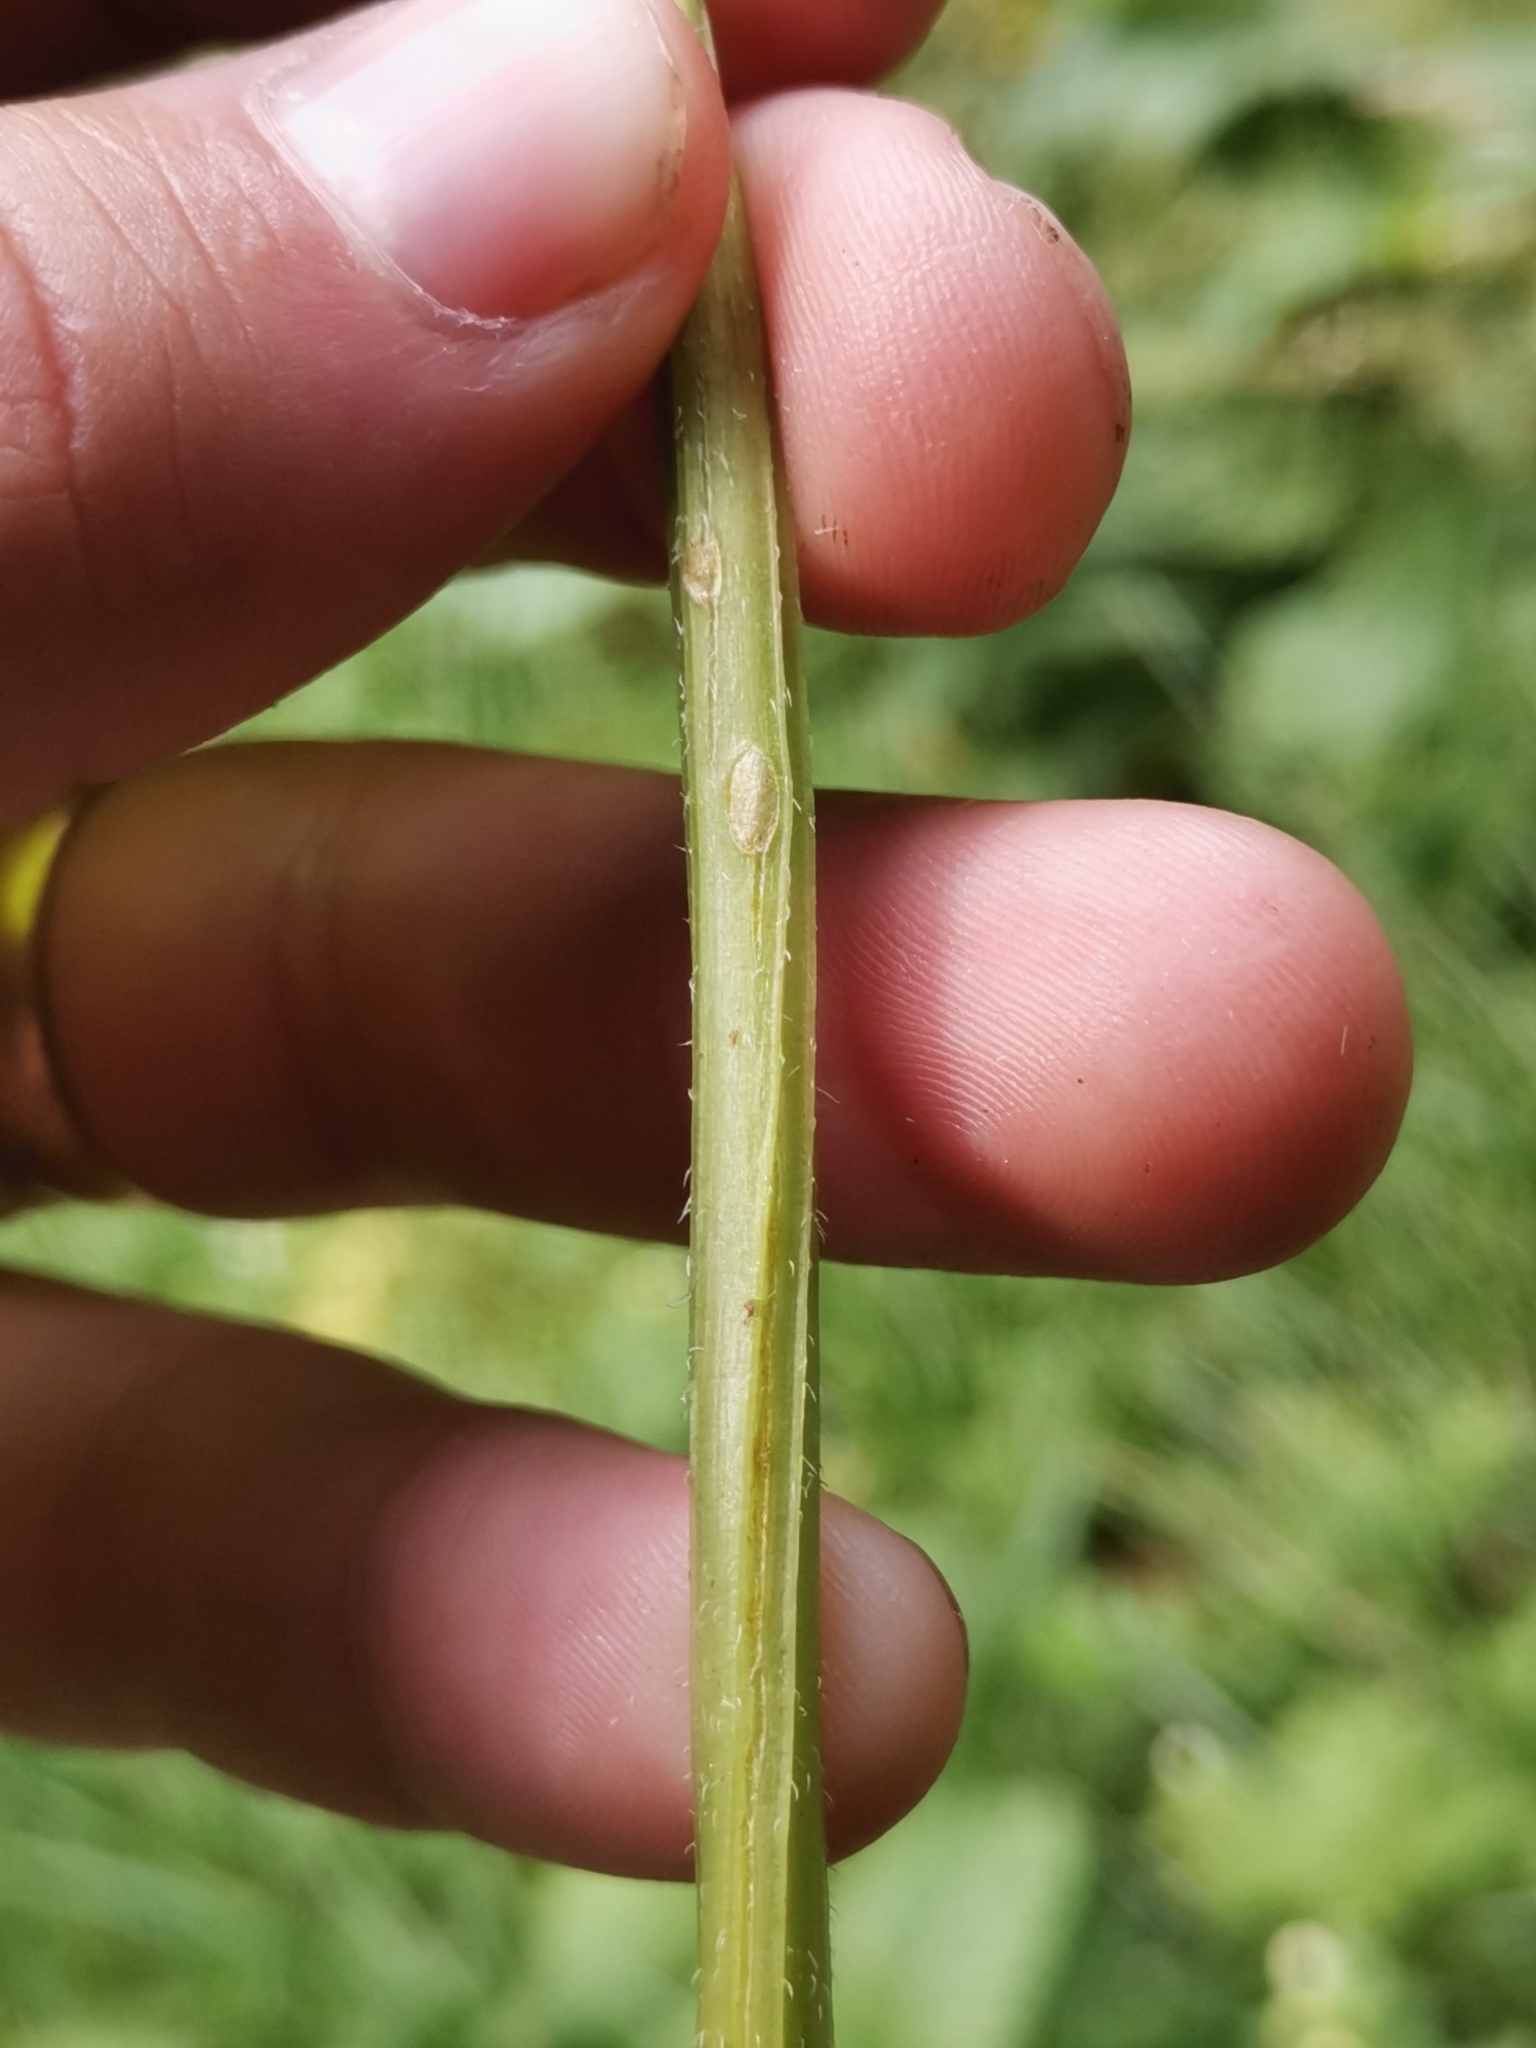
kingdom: Plantae
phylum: Tracheophyta
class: Magnoliopsida
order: Asterales
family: Campanulaceae
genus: Campanula
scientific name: Campanula trachelium
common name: Nettle-leaved bellflower
